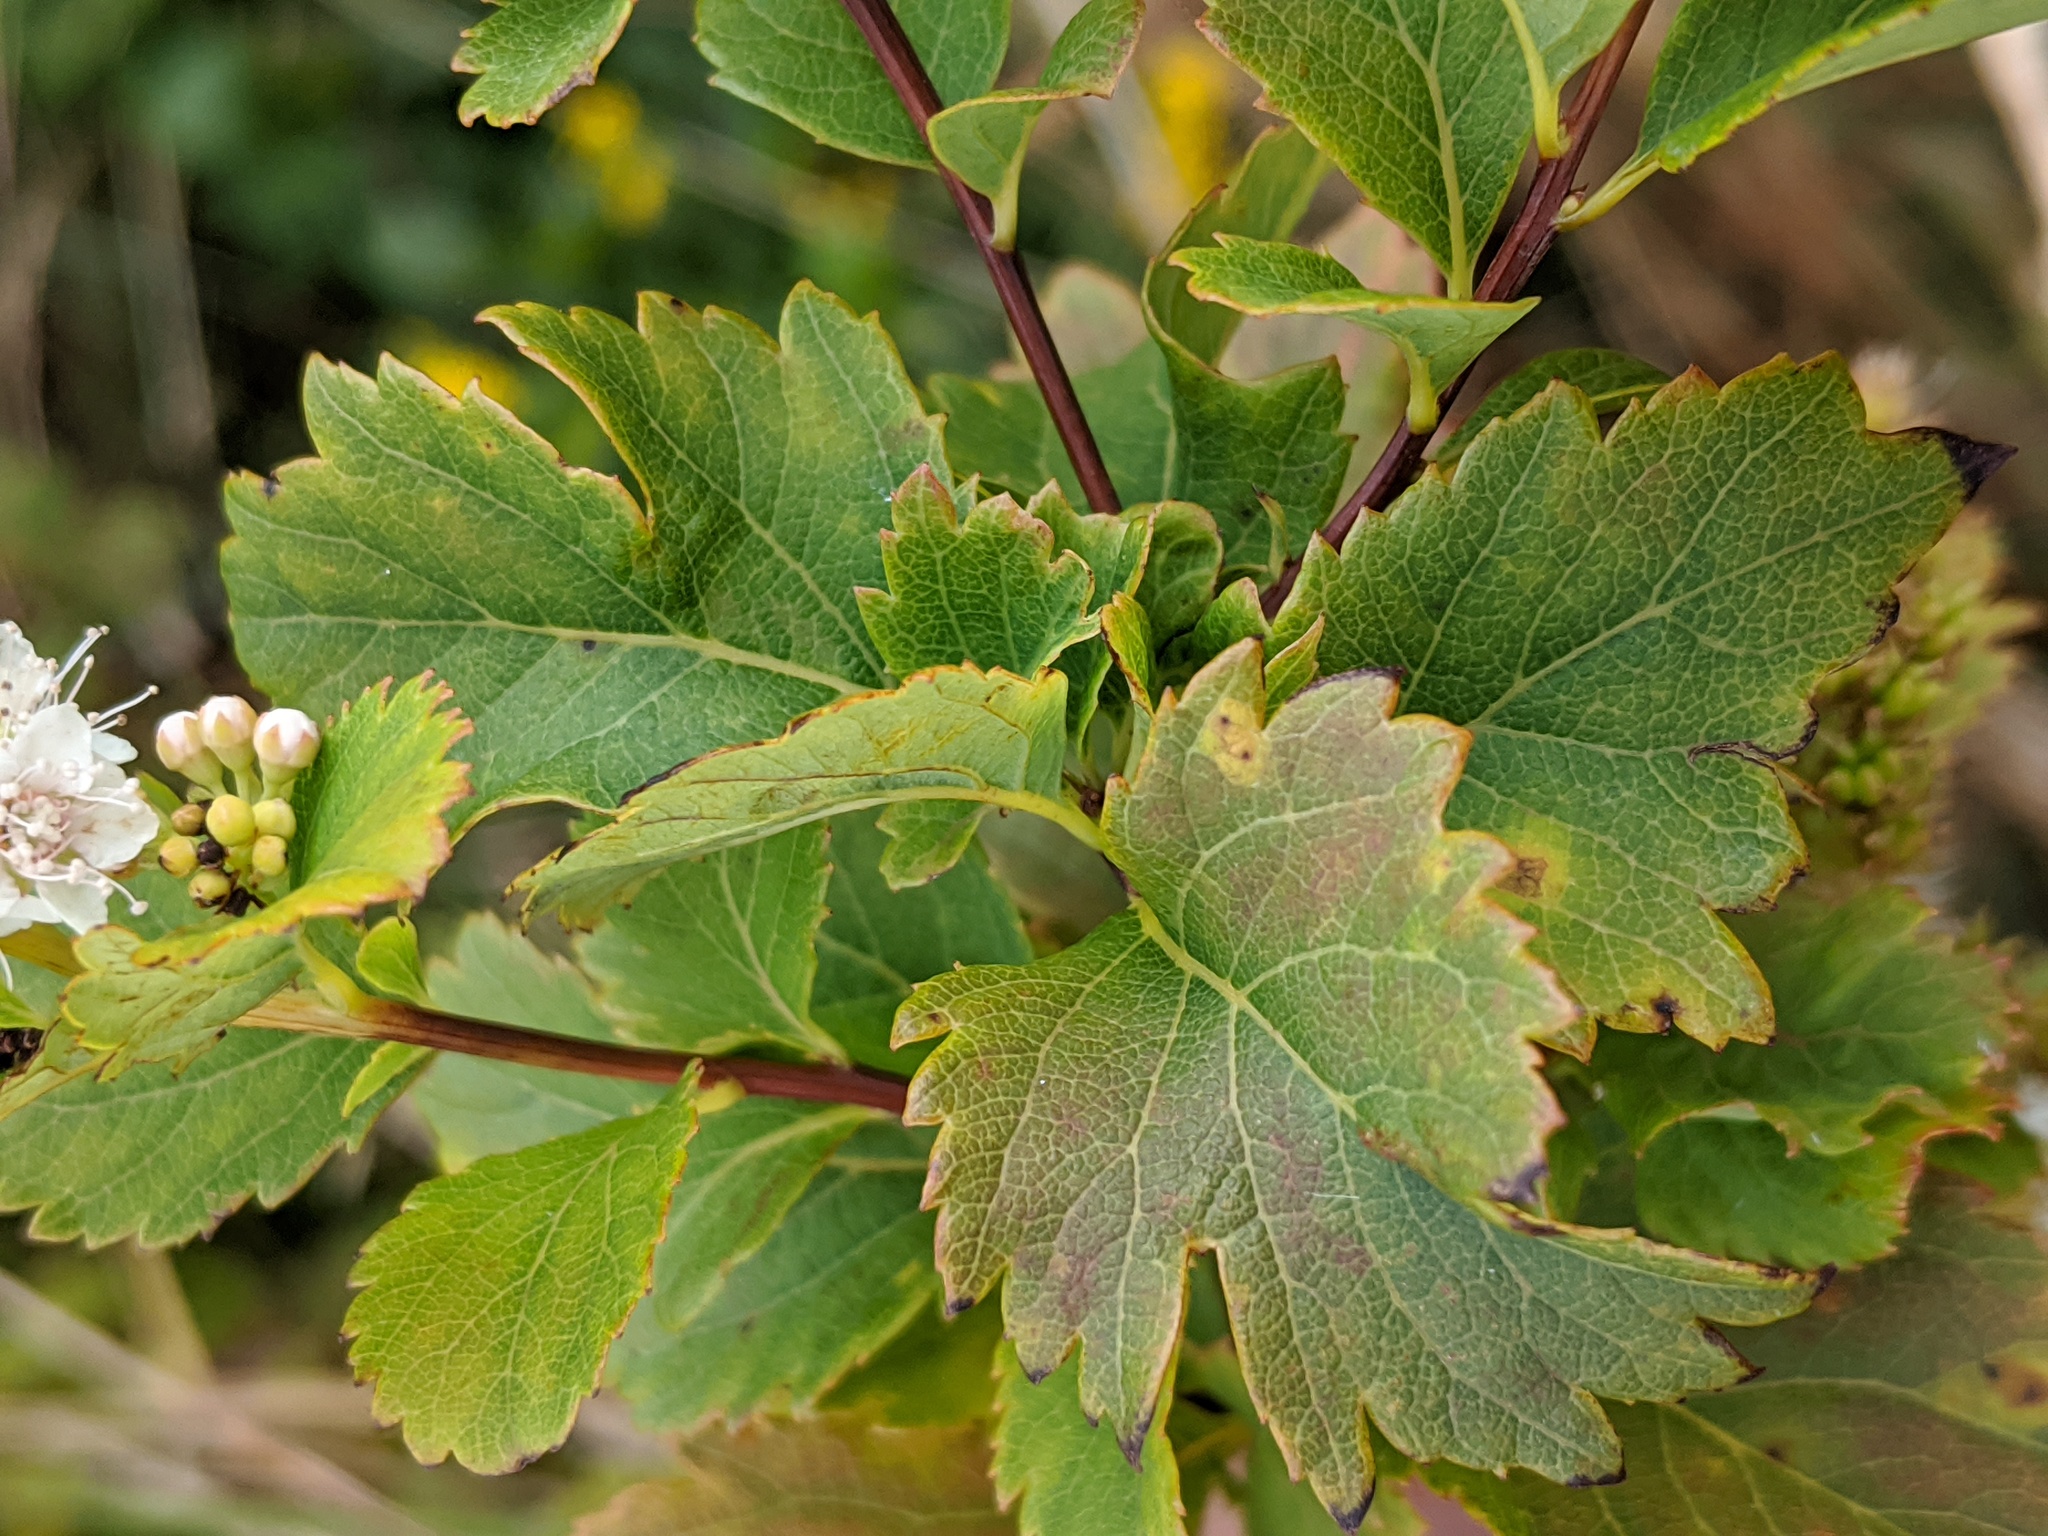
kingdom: Plantae
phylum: Tracheophyta
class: Magnoliopsida
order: Rosales
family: Rosaceae
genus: Spiraea
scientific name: Spiraea alba
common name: Pale bridewort
